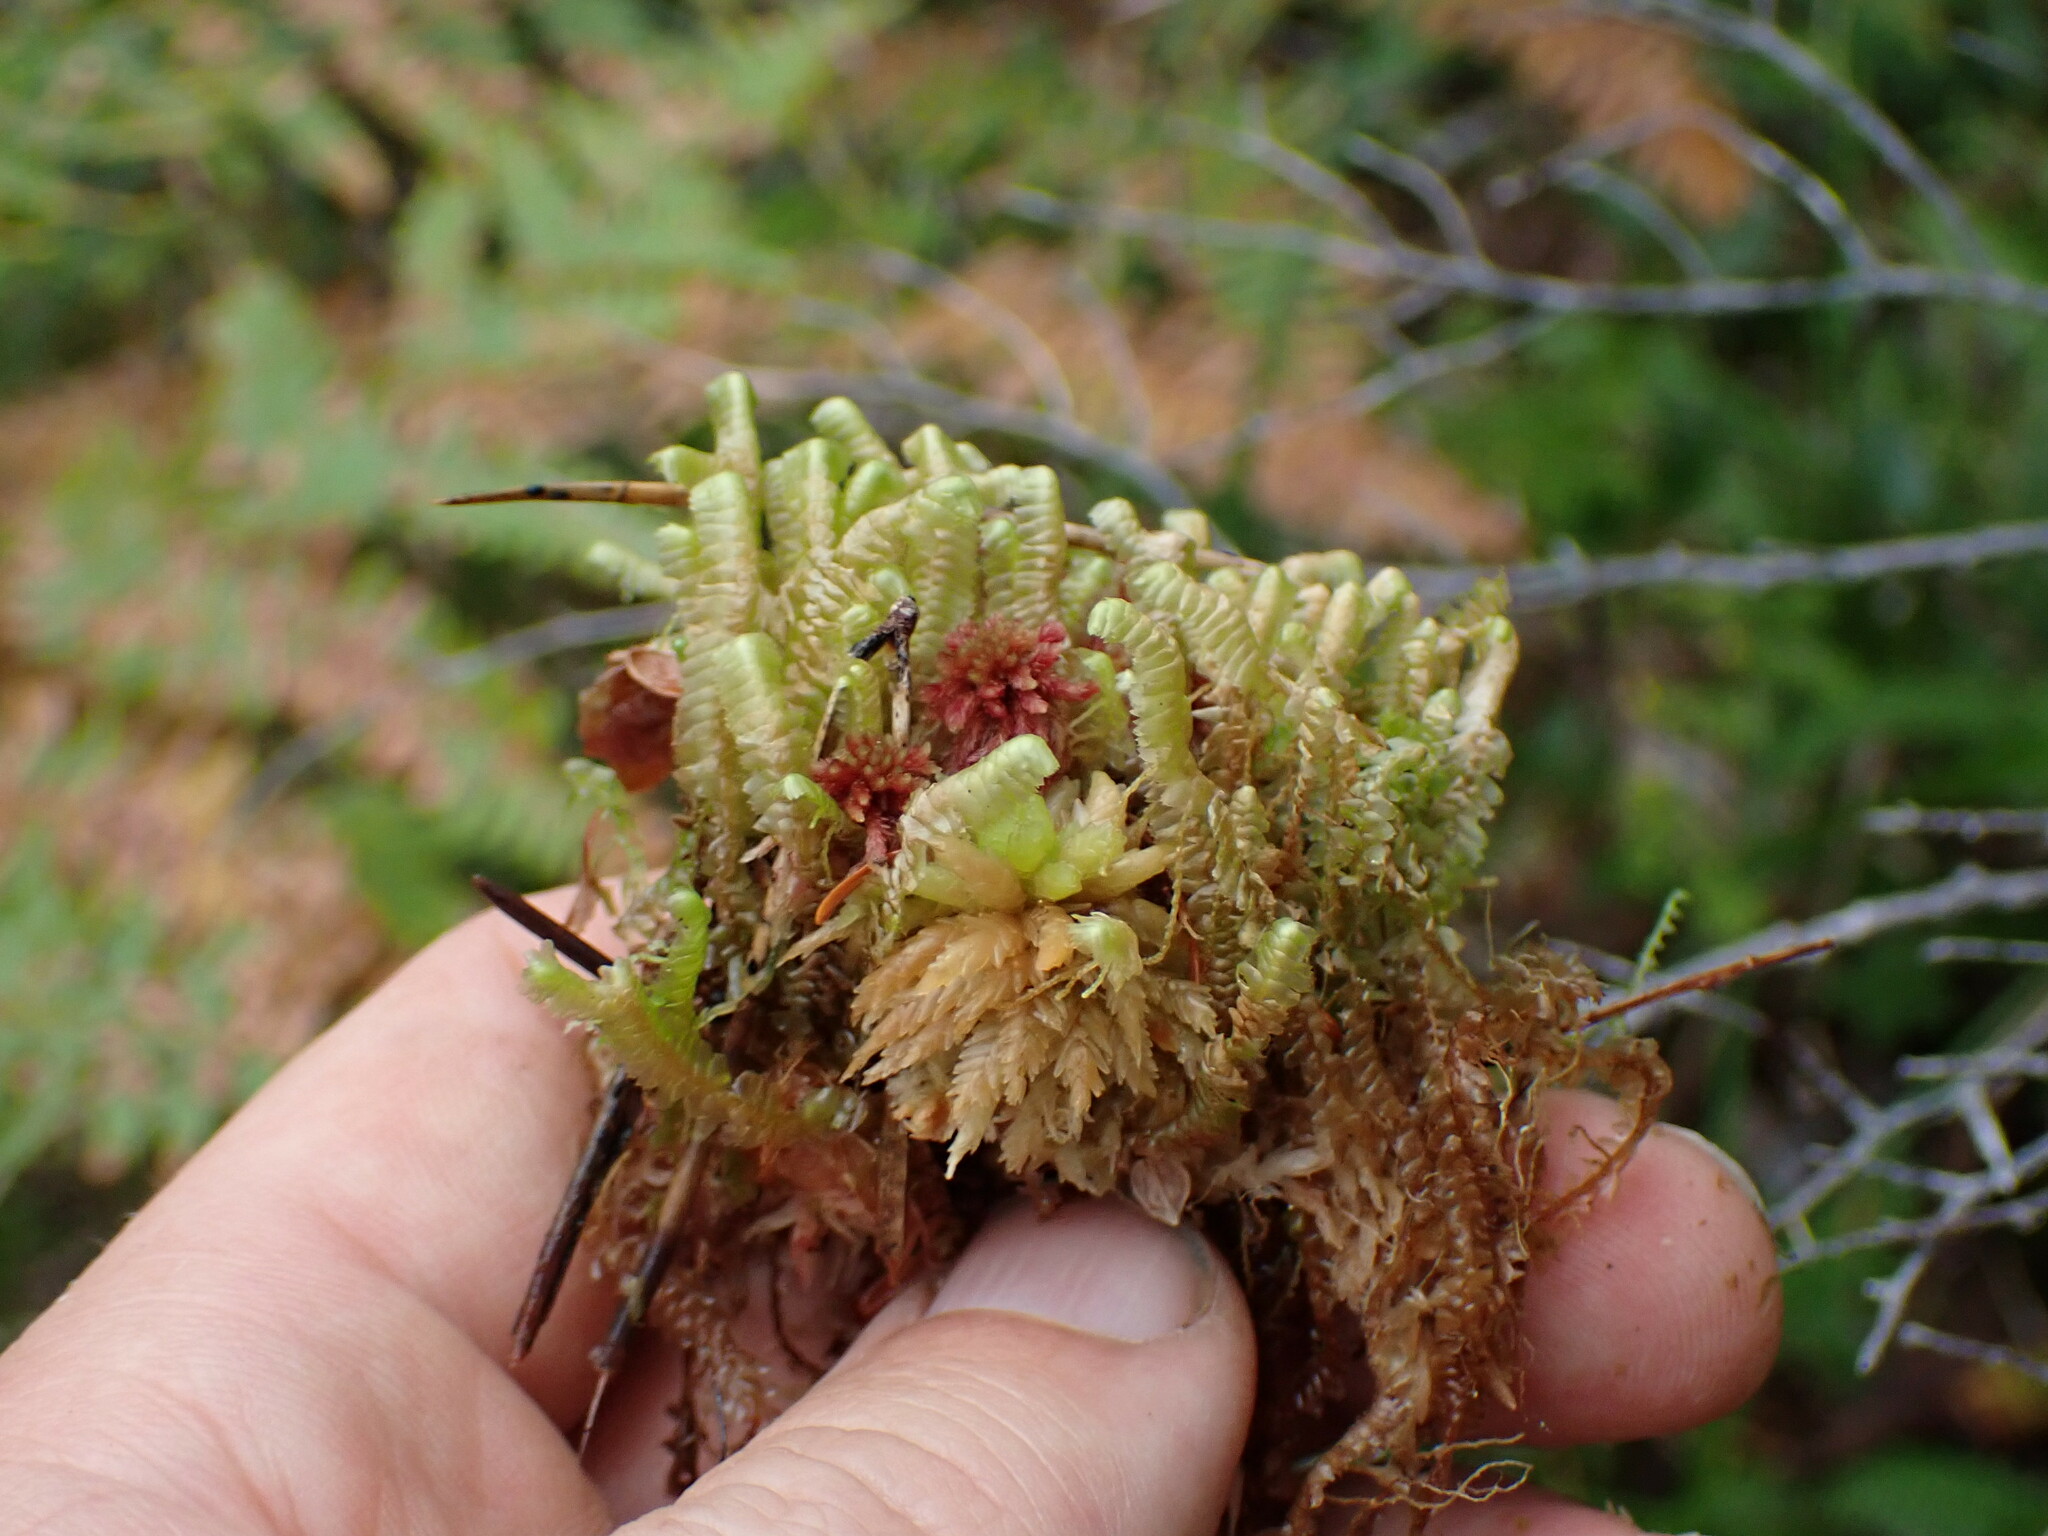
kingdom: Plantae
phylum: Marchantiophyta
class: Jungermanniopsida
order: Jungermanniales
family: Lepidoziaceae
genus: Bazzania
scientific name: Bazzania trilobata
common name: Three-lobed whipwort
